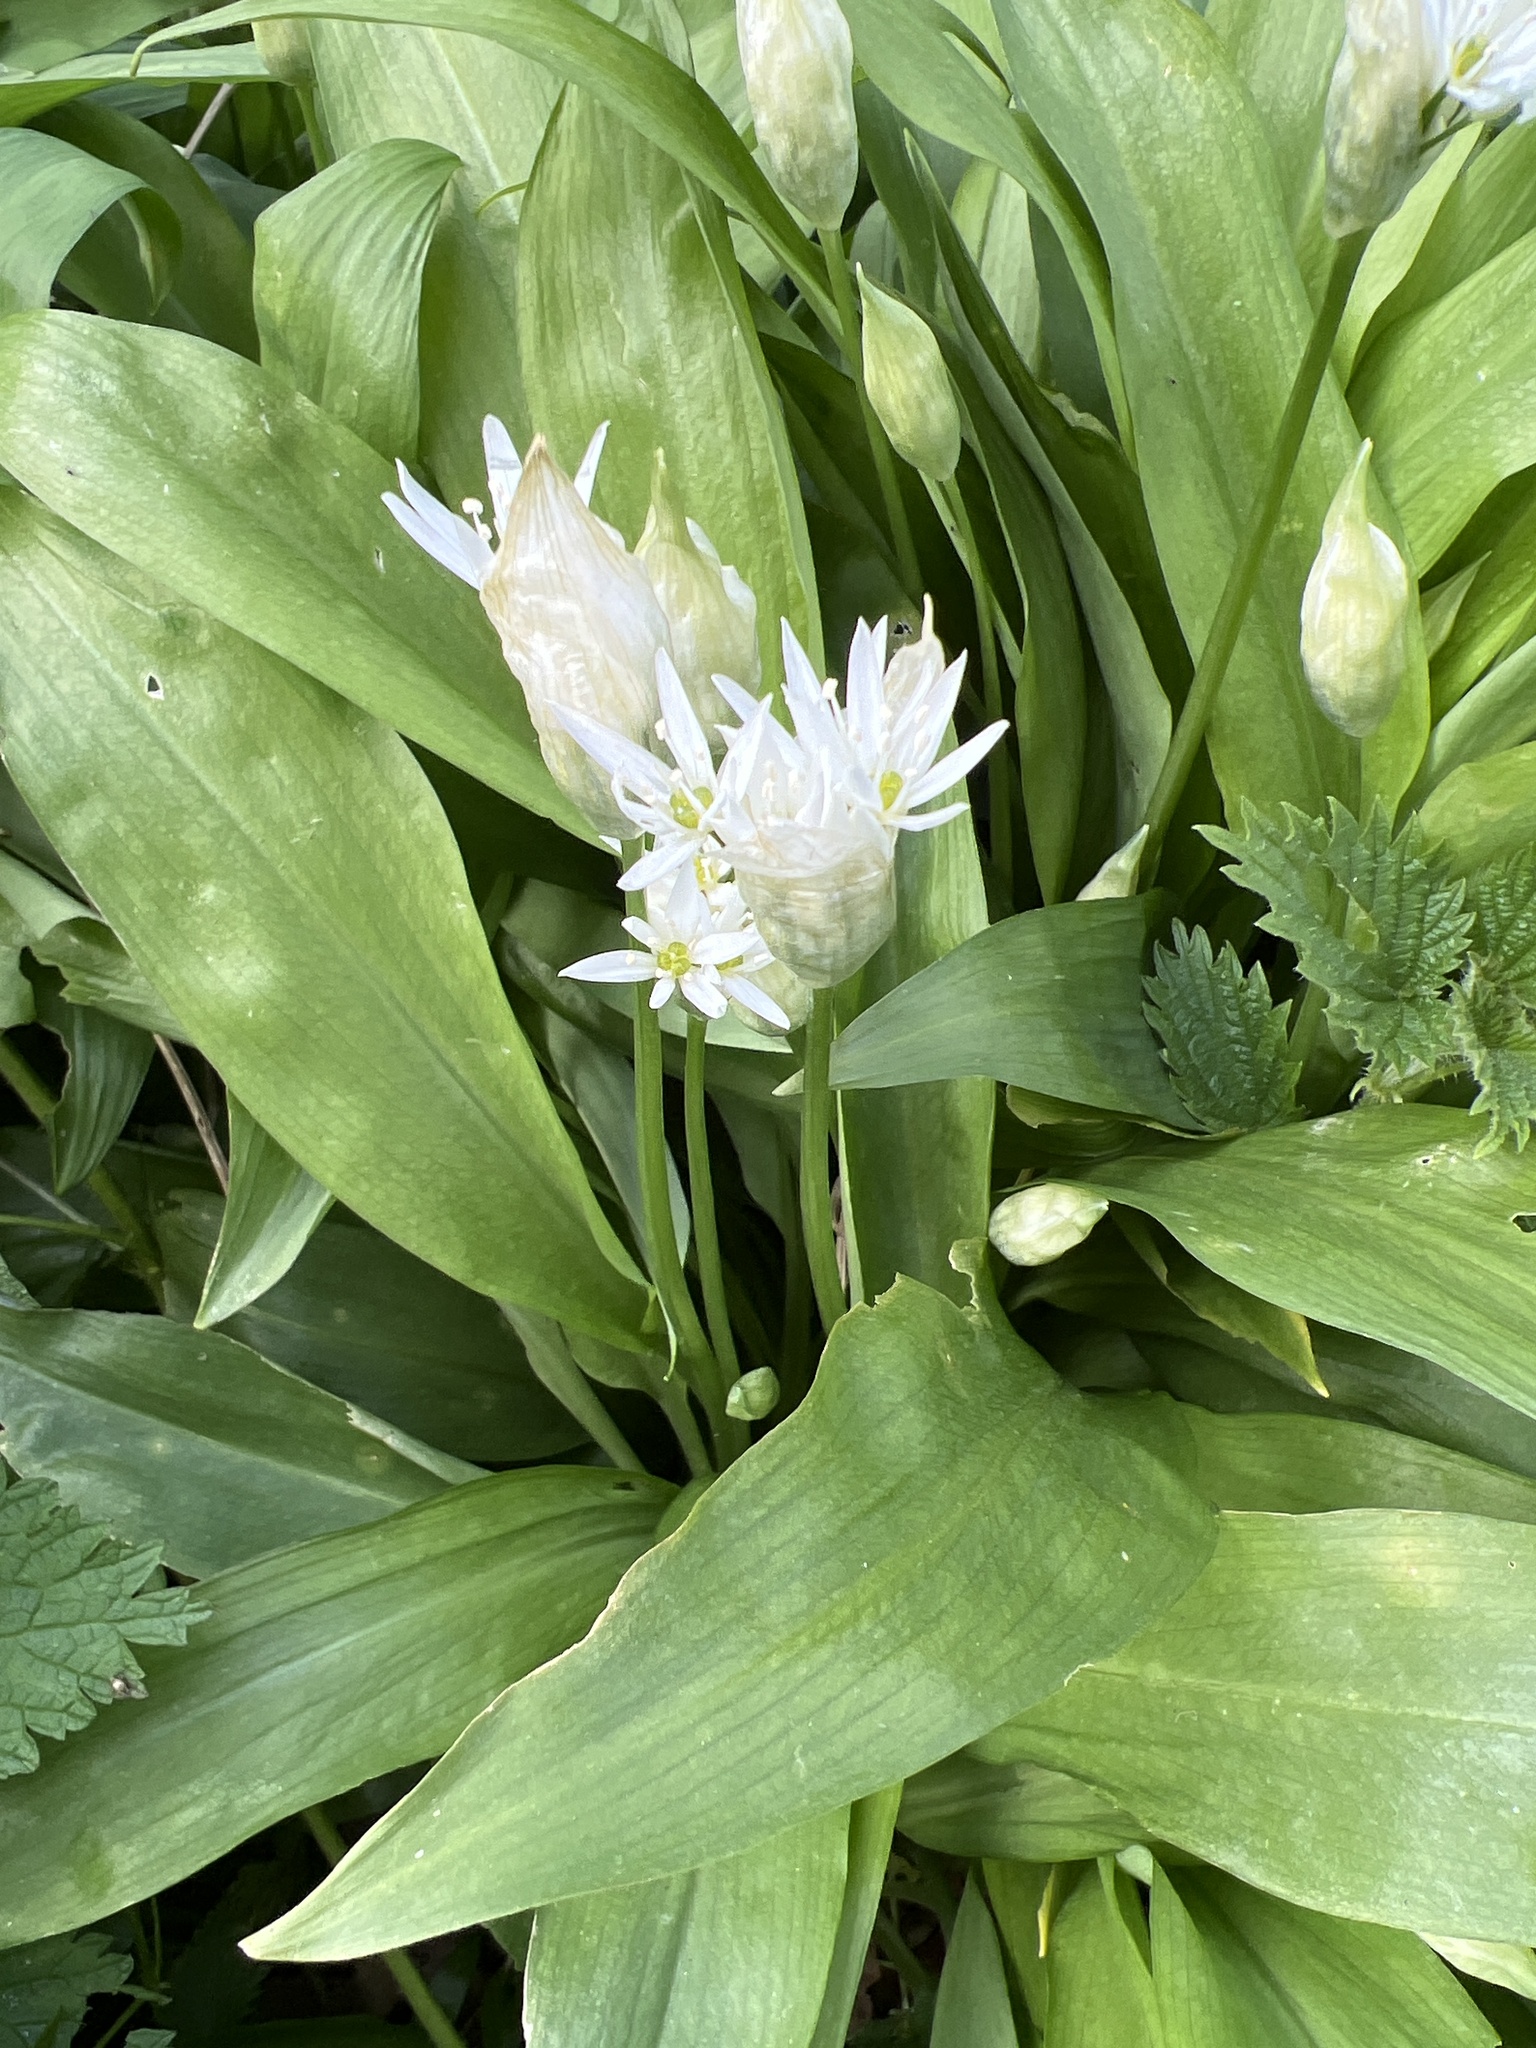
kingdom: Plantae
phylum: Tracheophyta
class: Liliopsida
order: Asparagales
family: Amaryllidaceae
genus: Allium
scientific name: Allium ursinum
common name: Ramsons
